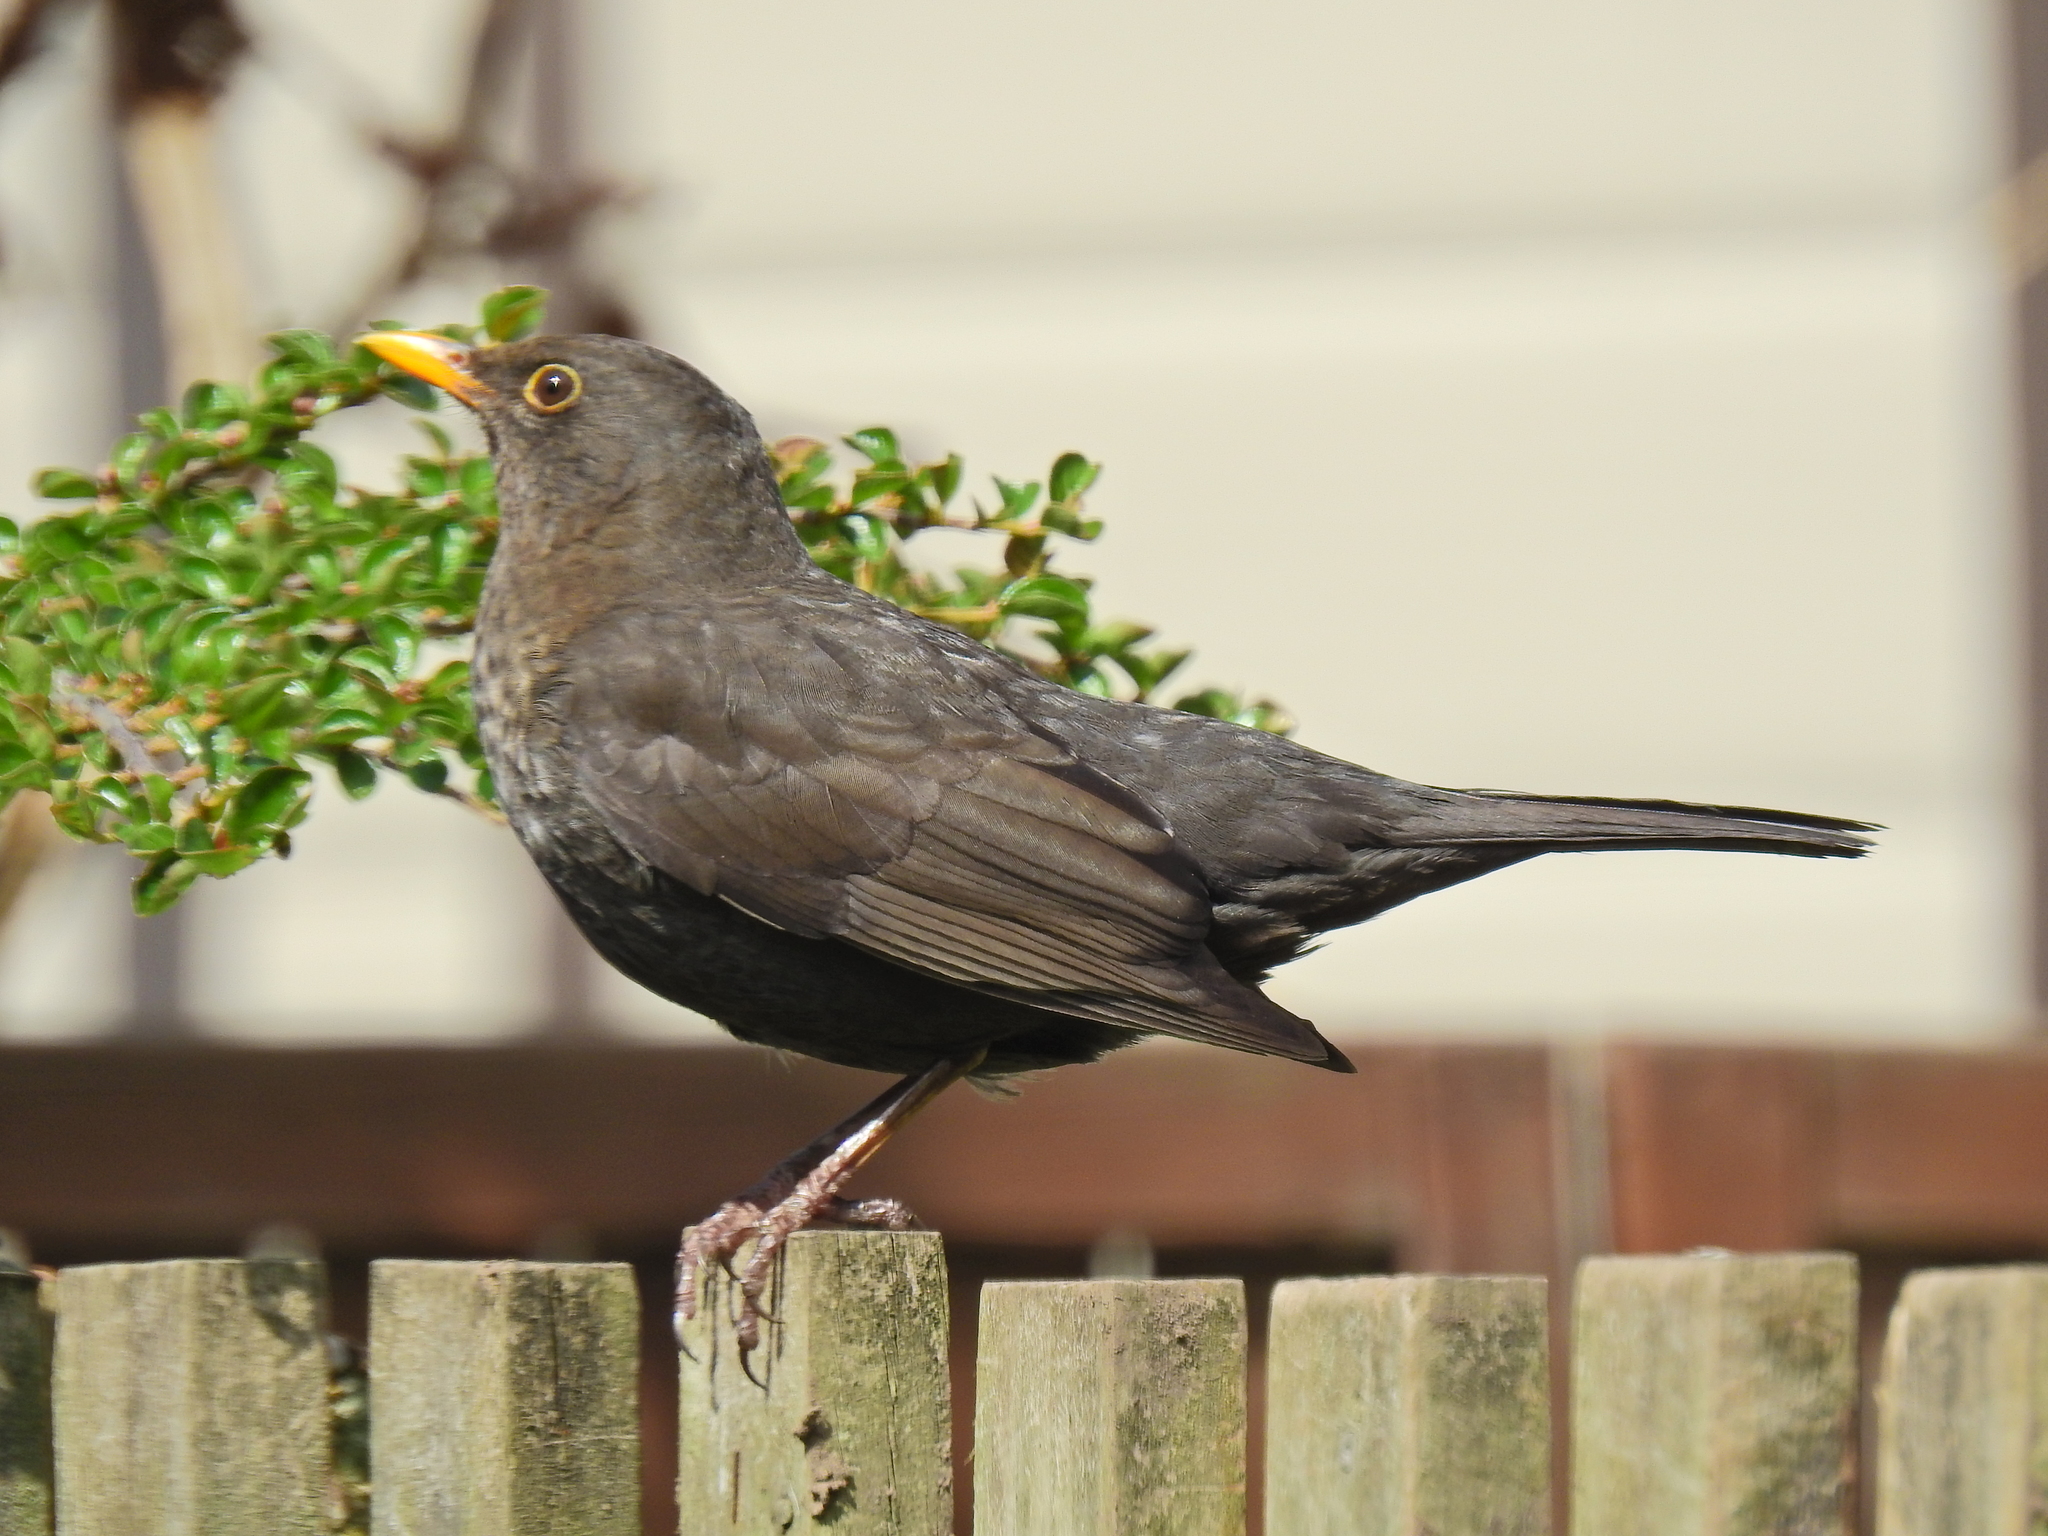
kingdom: Animalia
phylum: Chordata
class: Aves
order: Passeriformes
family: Turdidae
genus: Turdus
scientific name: Turdus merula
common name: Common blackbird
